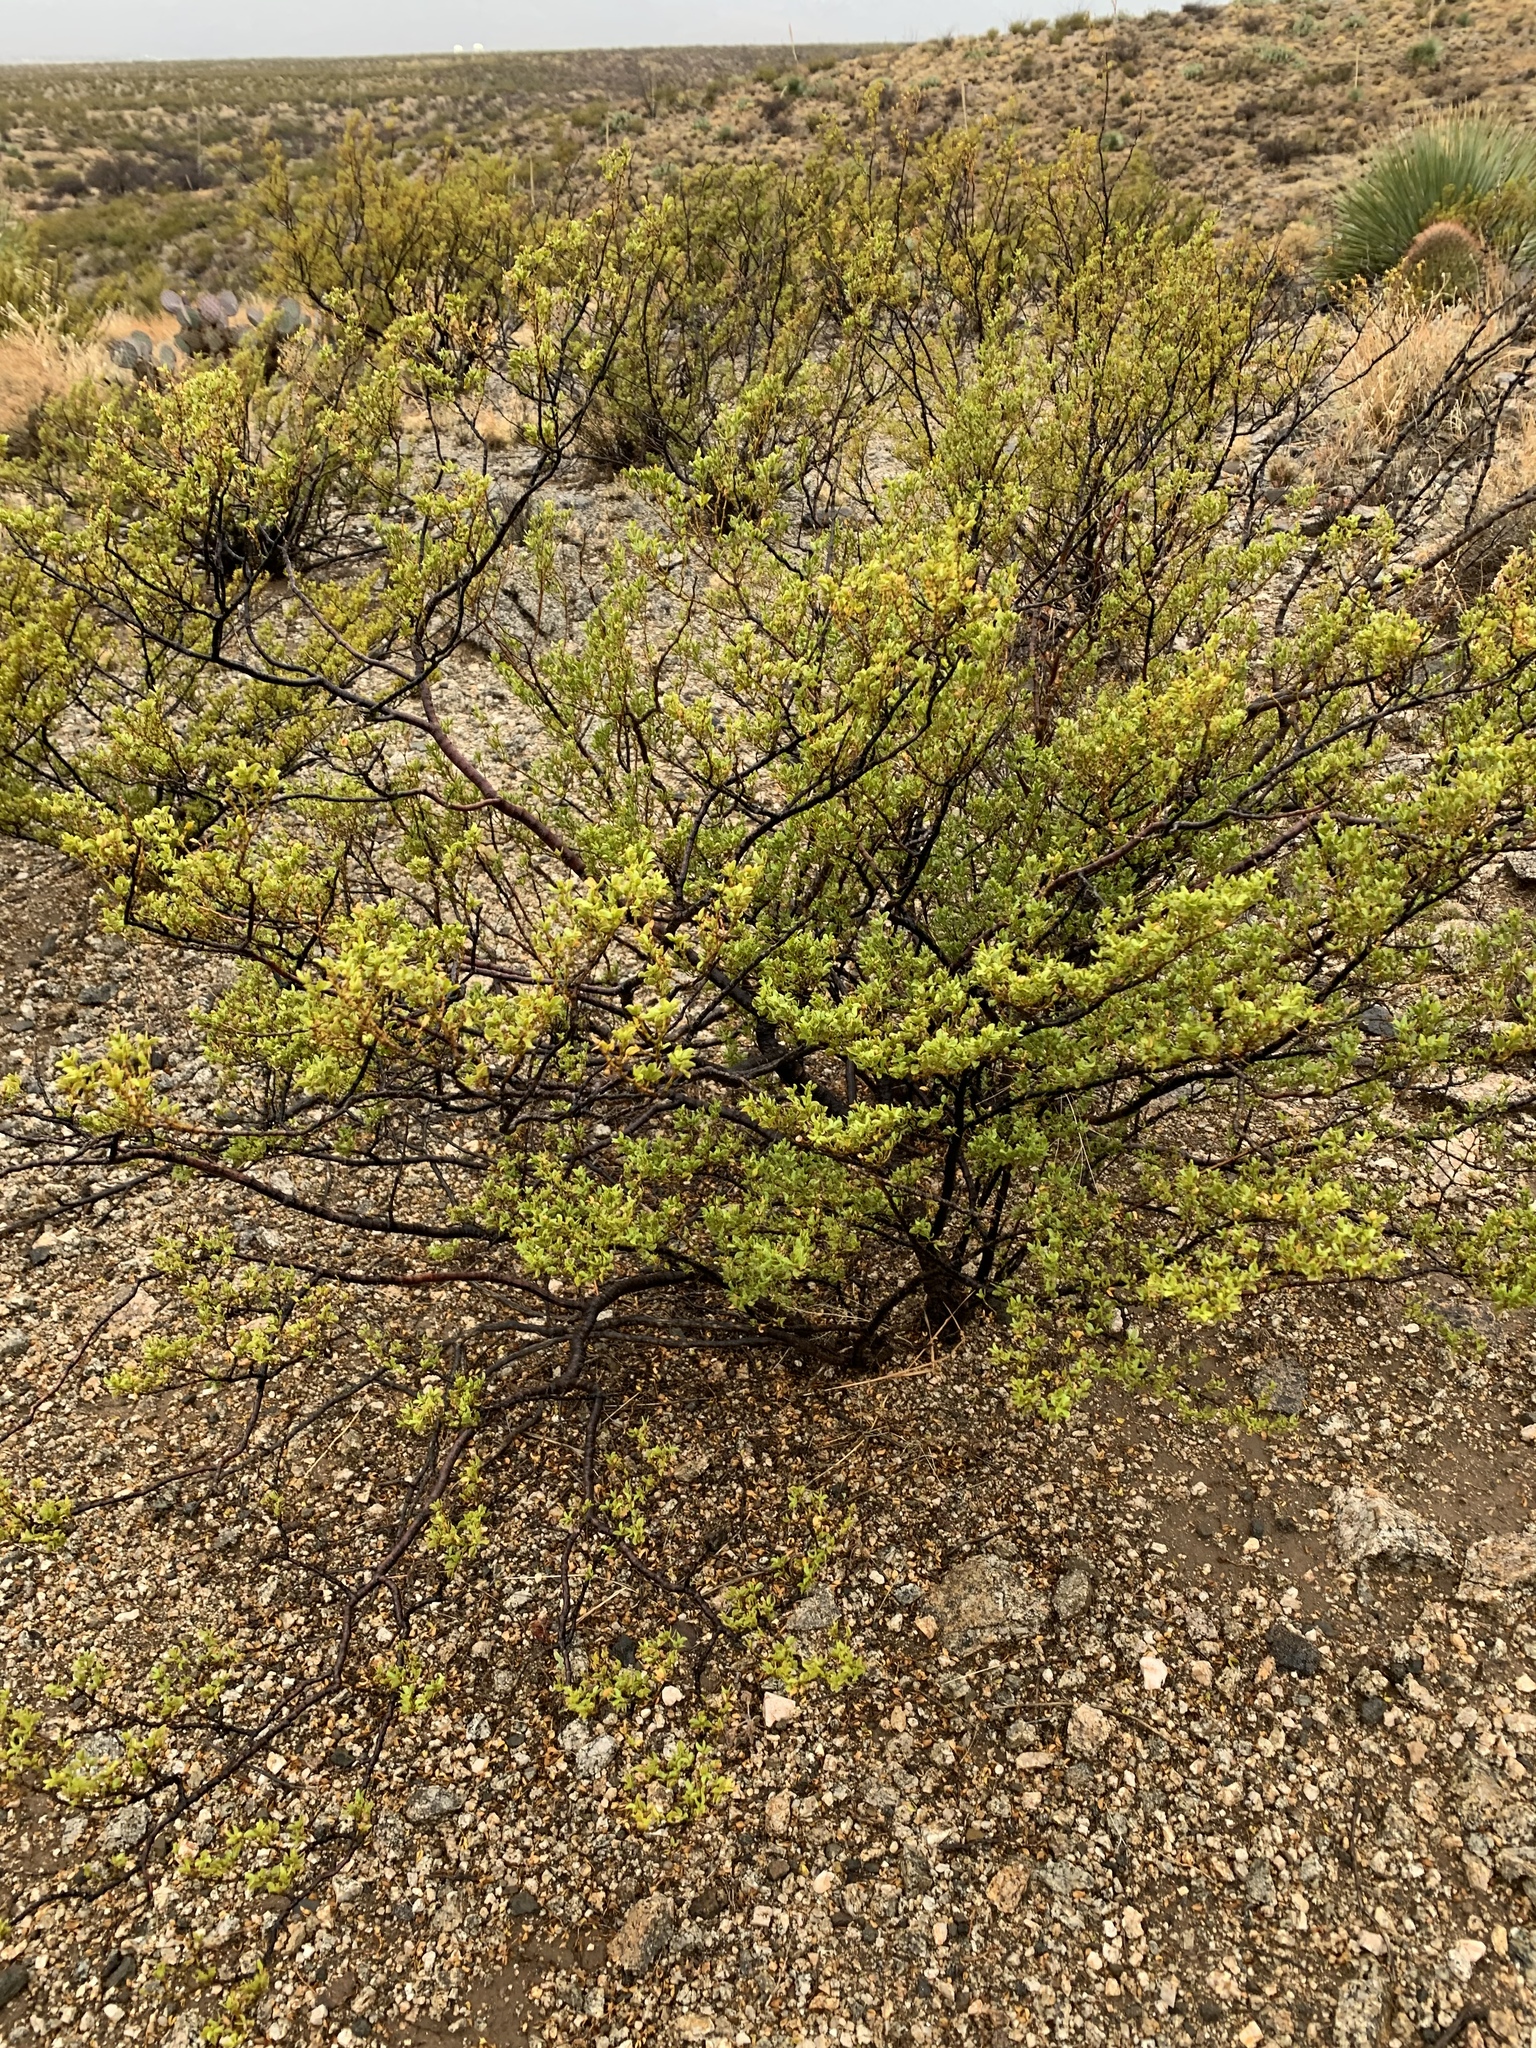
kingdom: Plantae
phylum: Tracheophyta
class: Magnoliopsida
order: Zygophyllales
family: Zygophyllaceae
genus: Larrea
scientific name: Larrea tridentata
